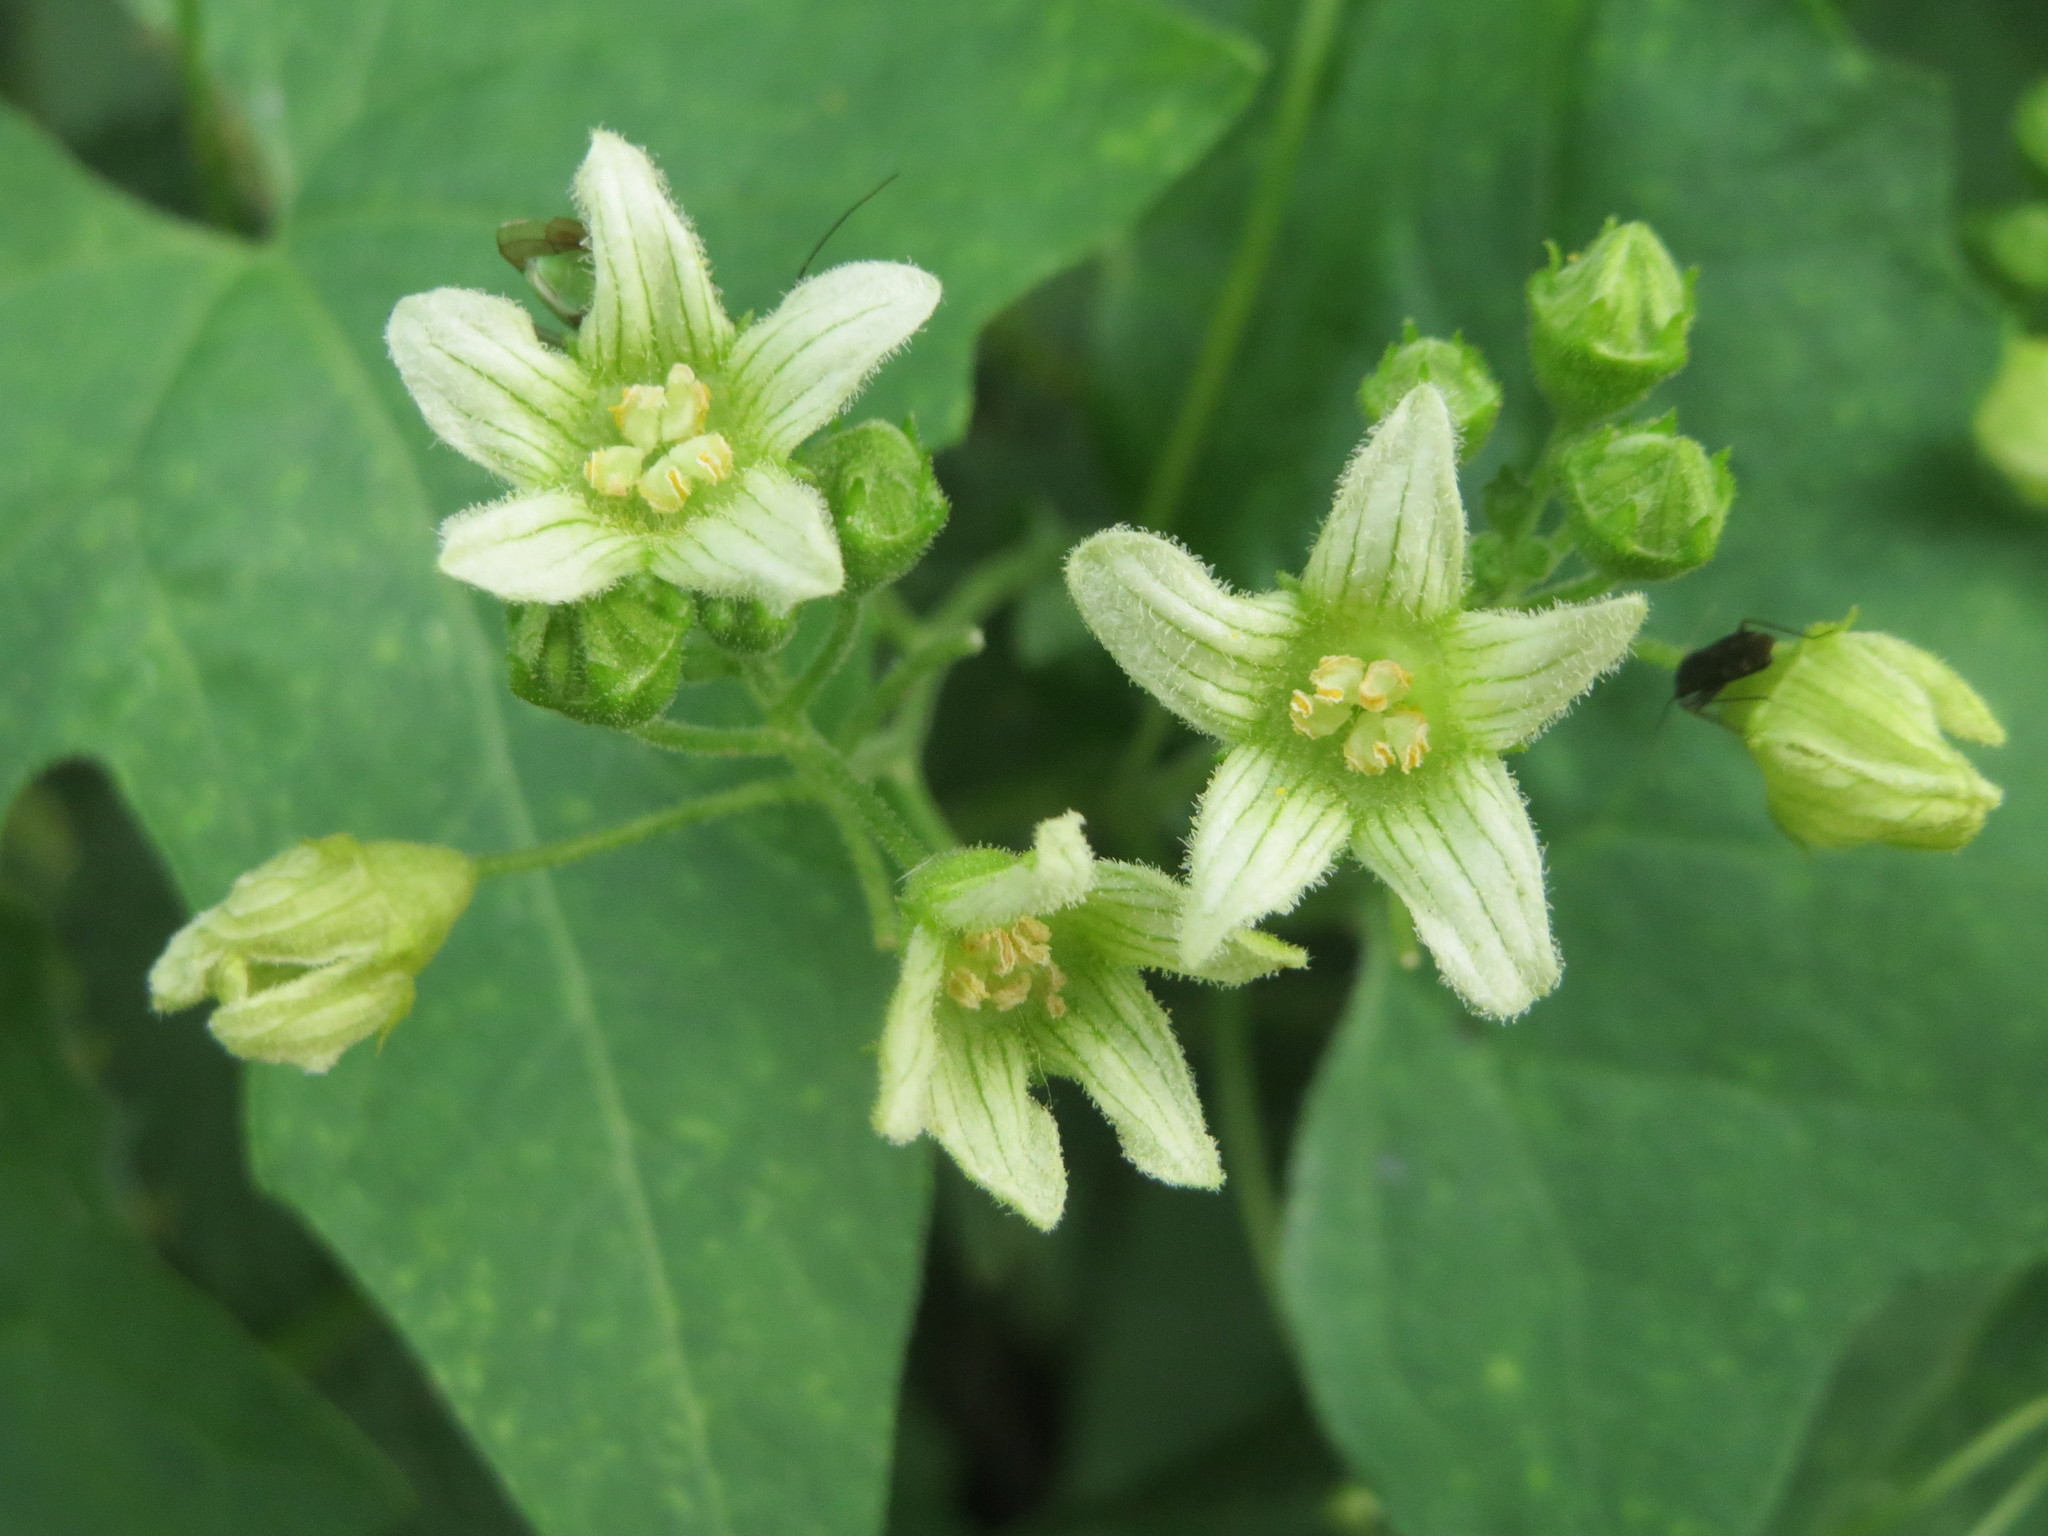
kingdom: Plantae
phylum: Tracheophyta
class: Magnoliopsida
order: Cucurbitales
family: Cucurbitaceae
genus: Bryonia
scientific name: Bryonia dioica
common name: White bryony
